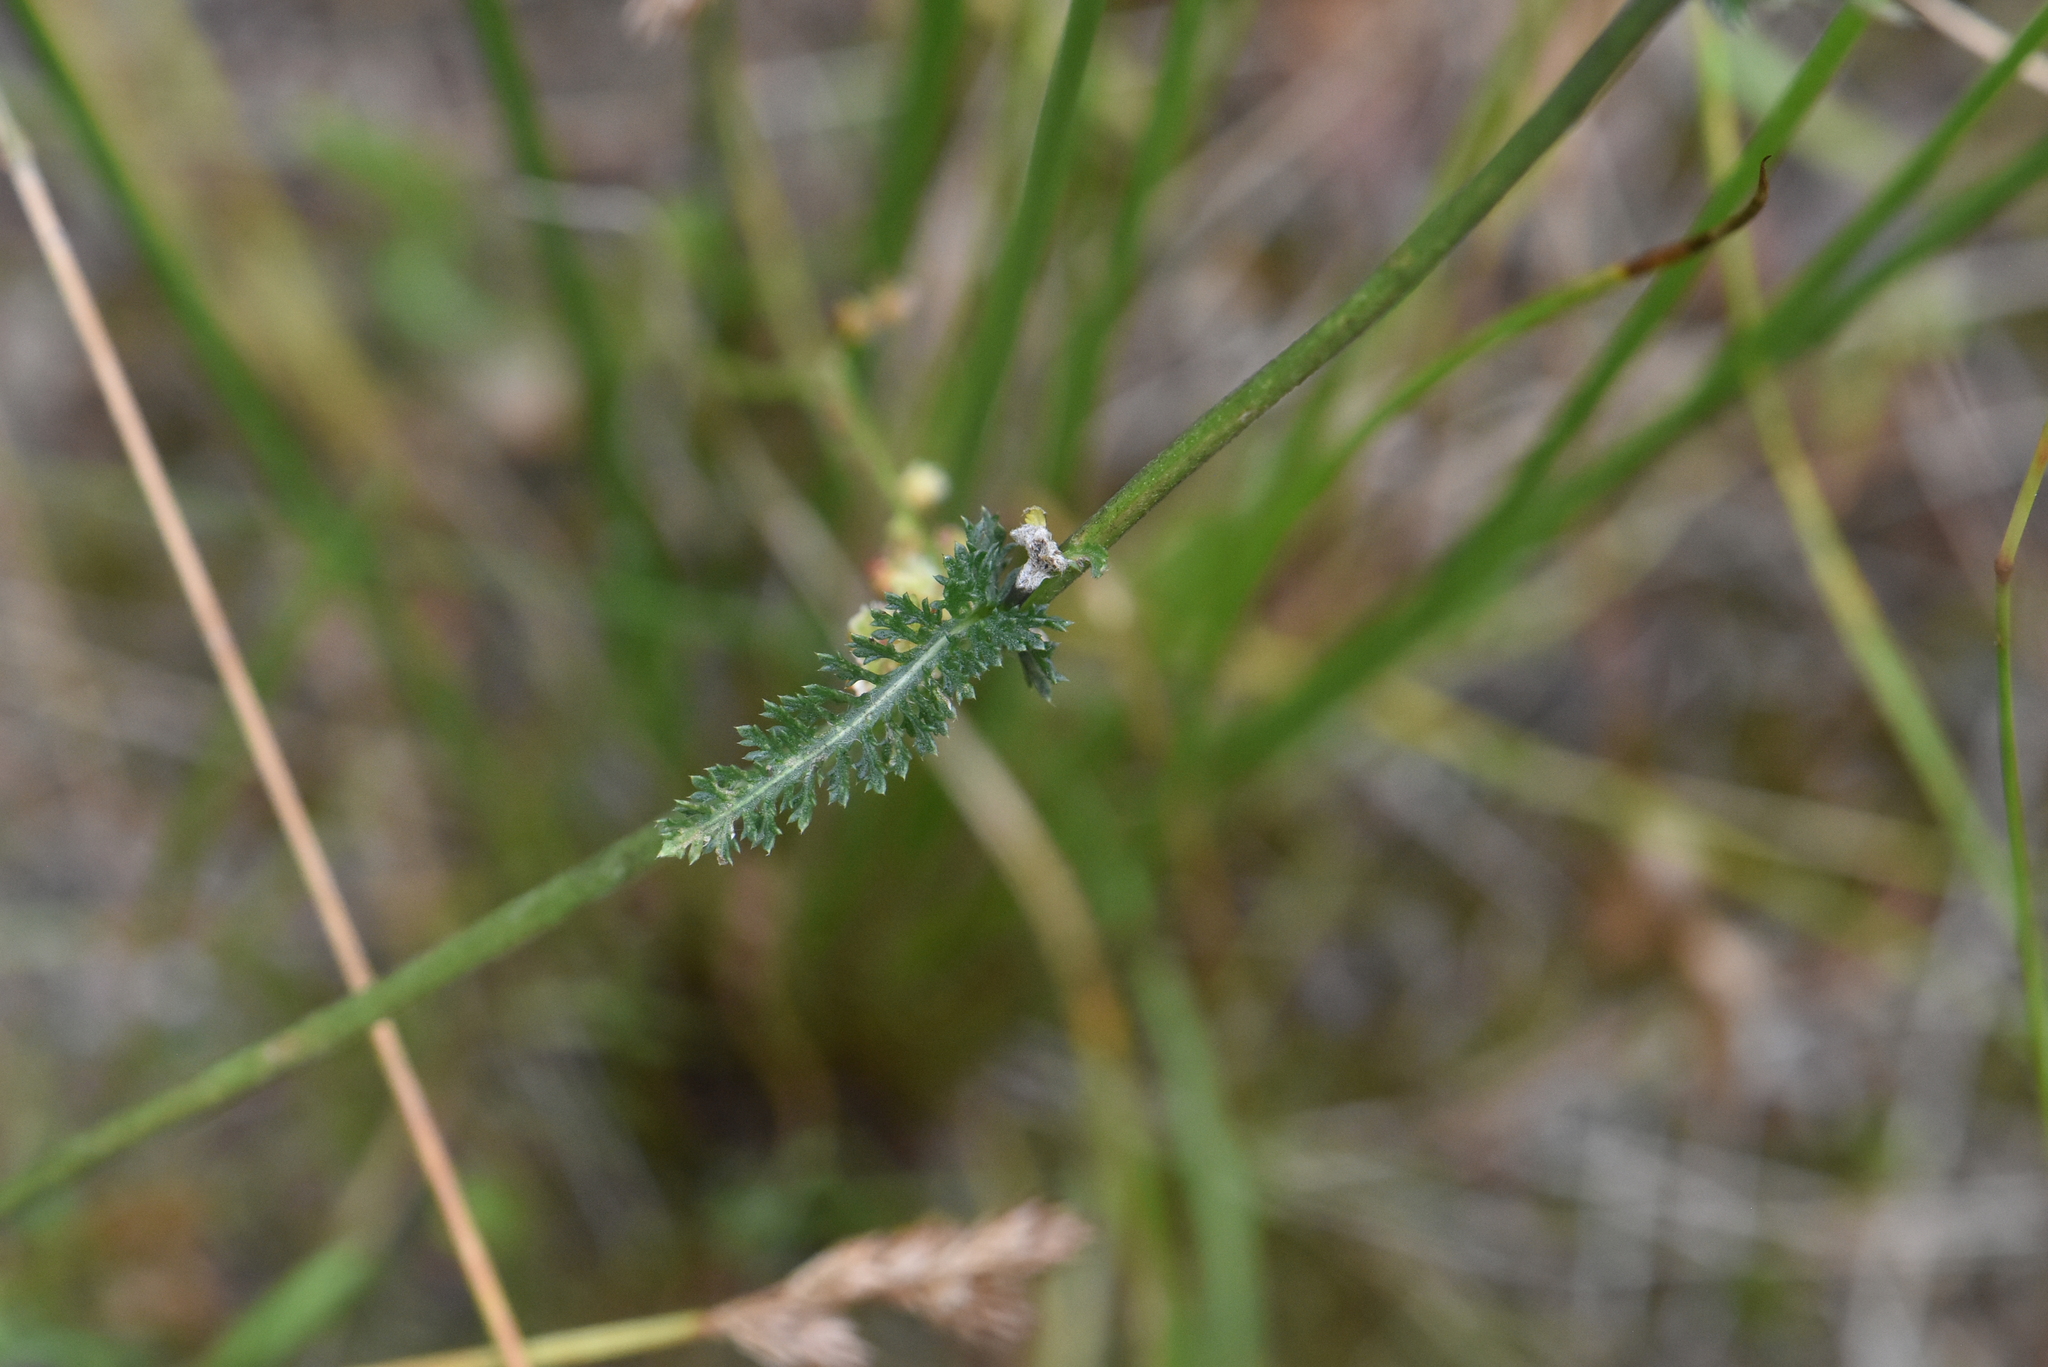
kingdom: Plantae
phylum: Tracheophyta
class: Magnoliopsida
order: Asterales
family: Asteraceae
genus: Achillea
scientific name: Achillea millefolium
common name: Yarrow
